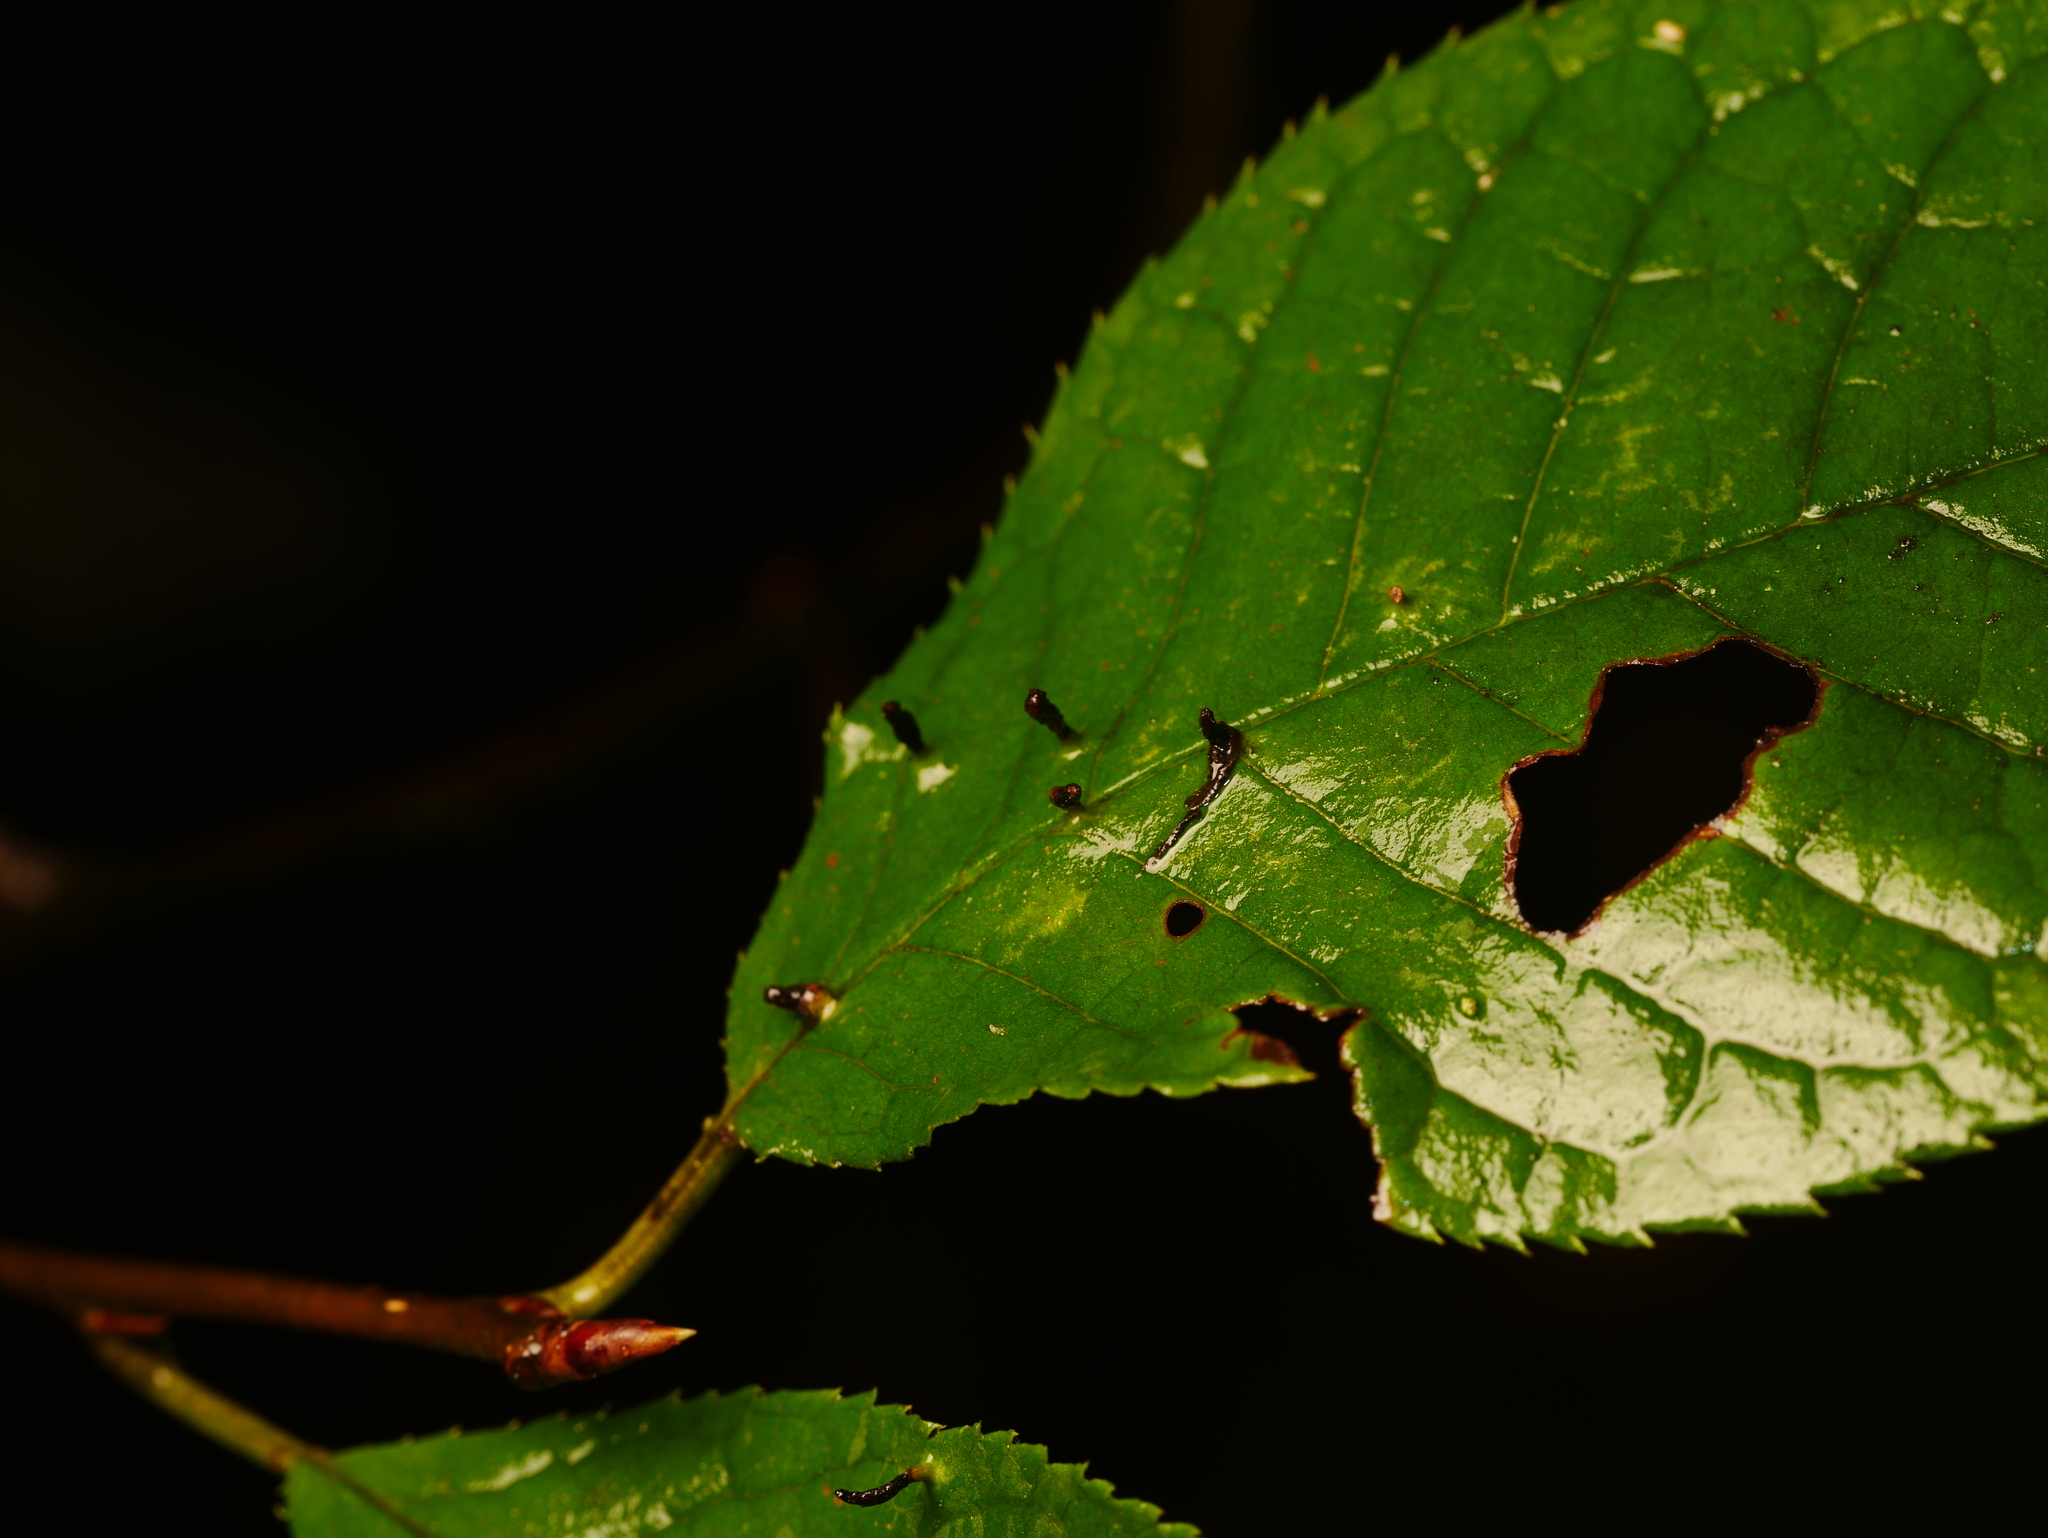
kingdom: Animalia
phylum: Arthropoda
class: Arachnida
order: Trombidiformes
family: Eriophyidae
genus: Phyllocoptes
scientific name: Phyllocoptes eupadi
